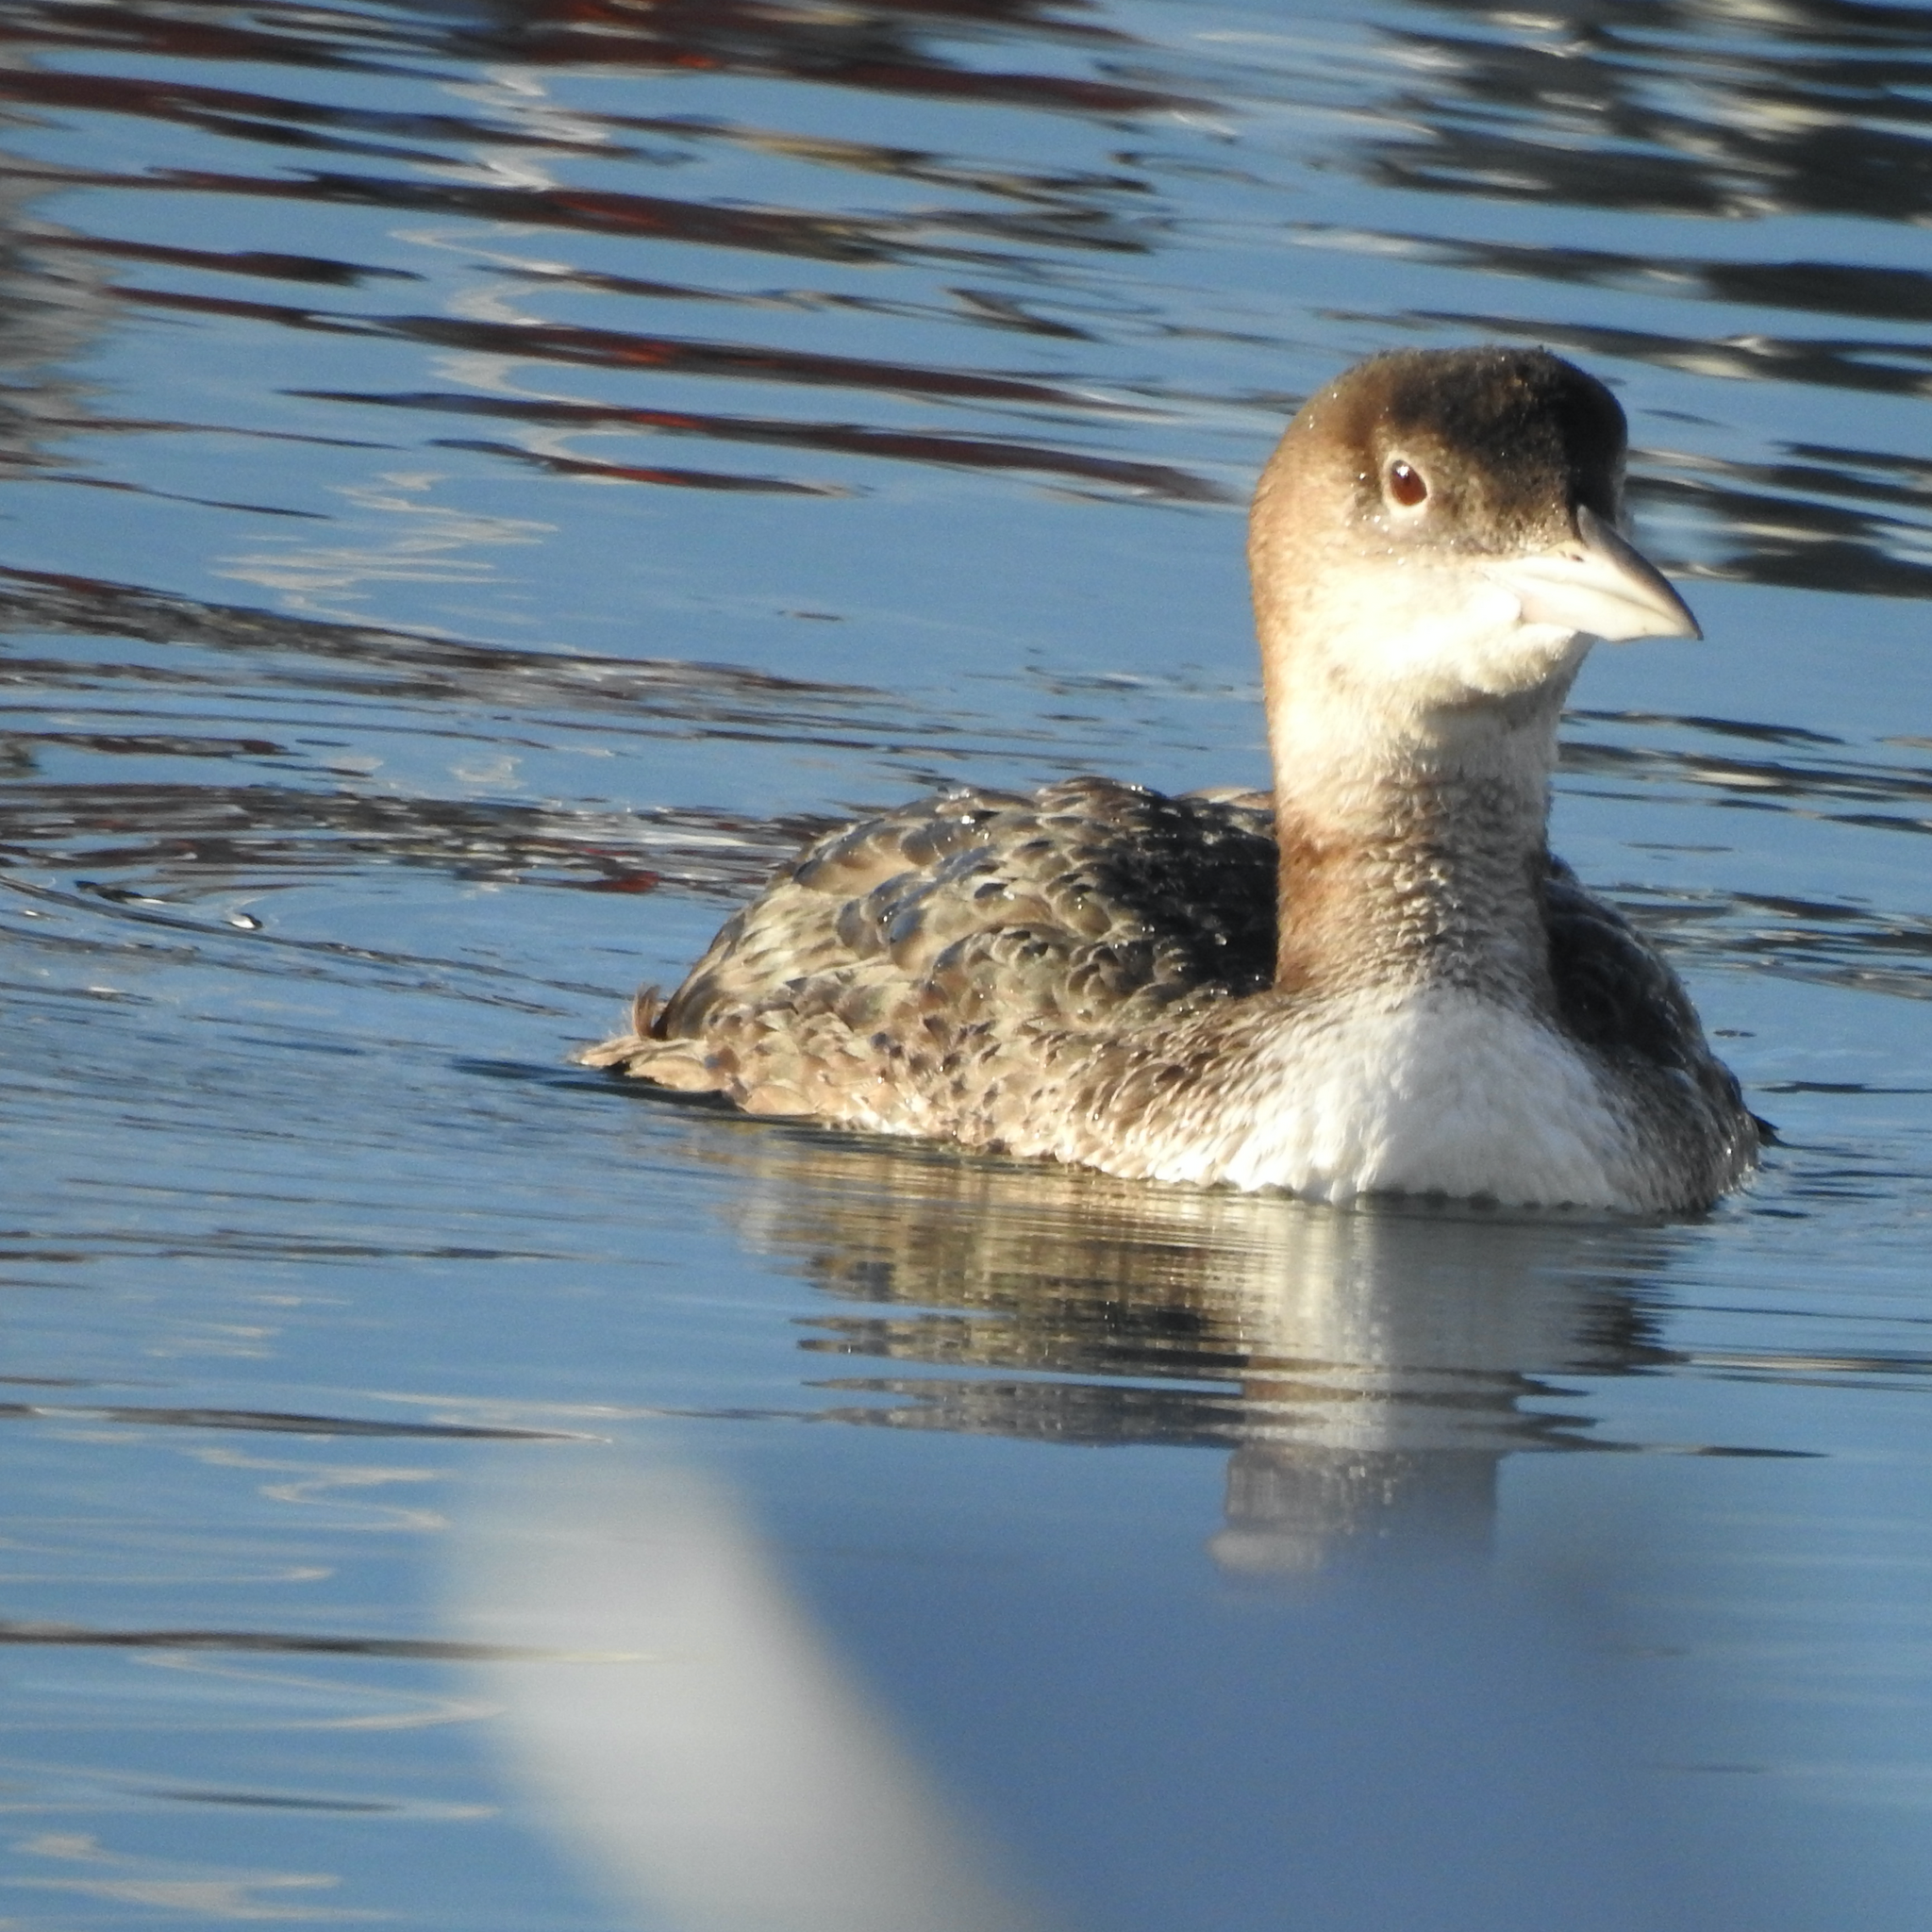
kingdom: Animalia
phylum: Chordata
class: Aves
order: Gaviiformes
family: Gaviidae
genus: Gavia
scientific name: Gavia immer
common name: Common loon
